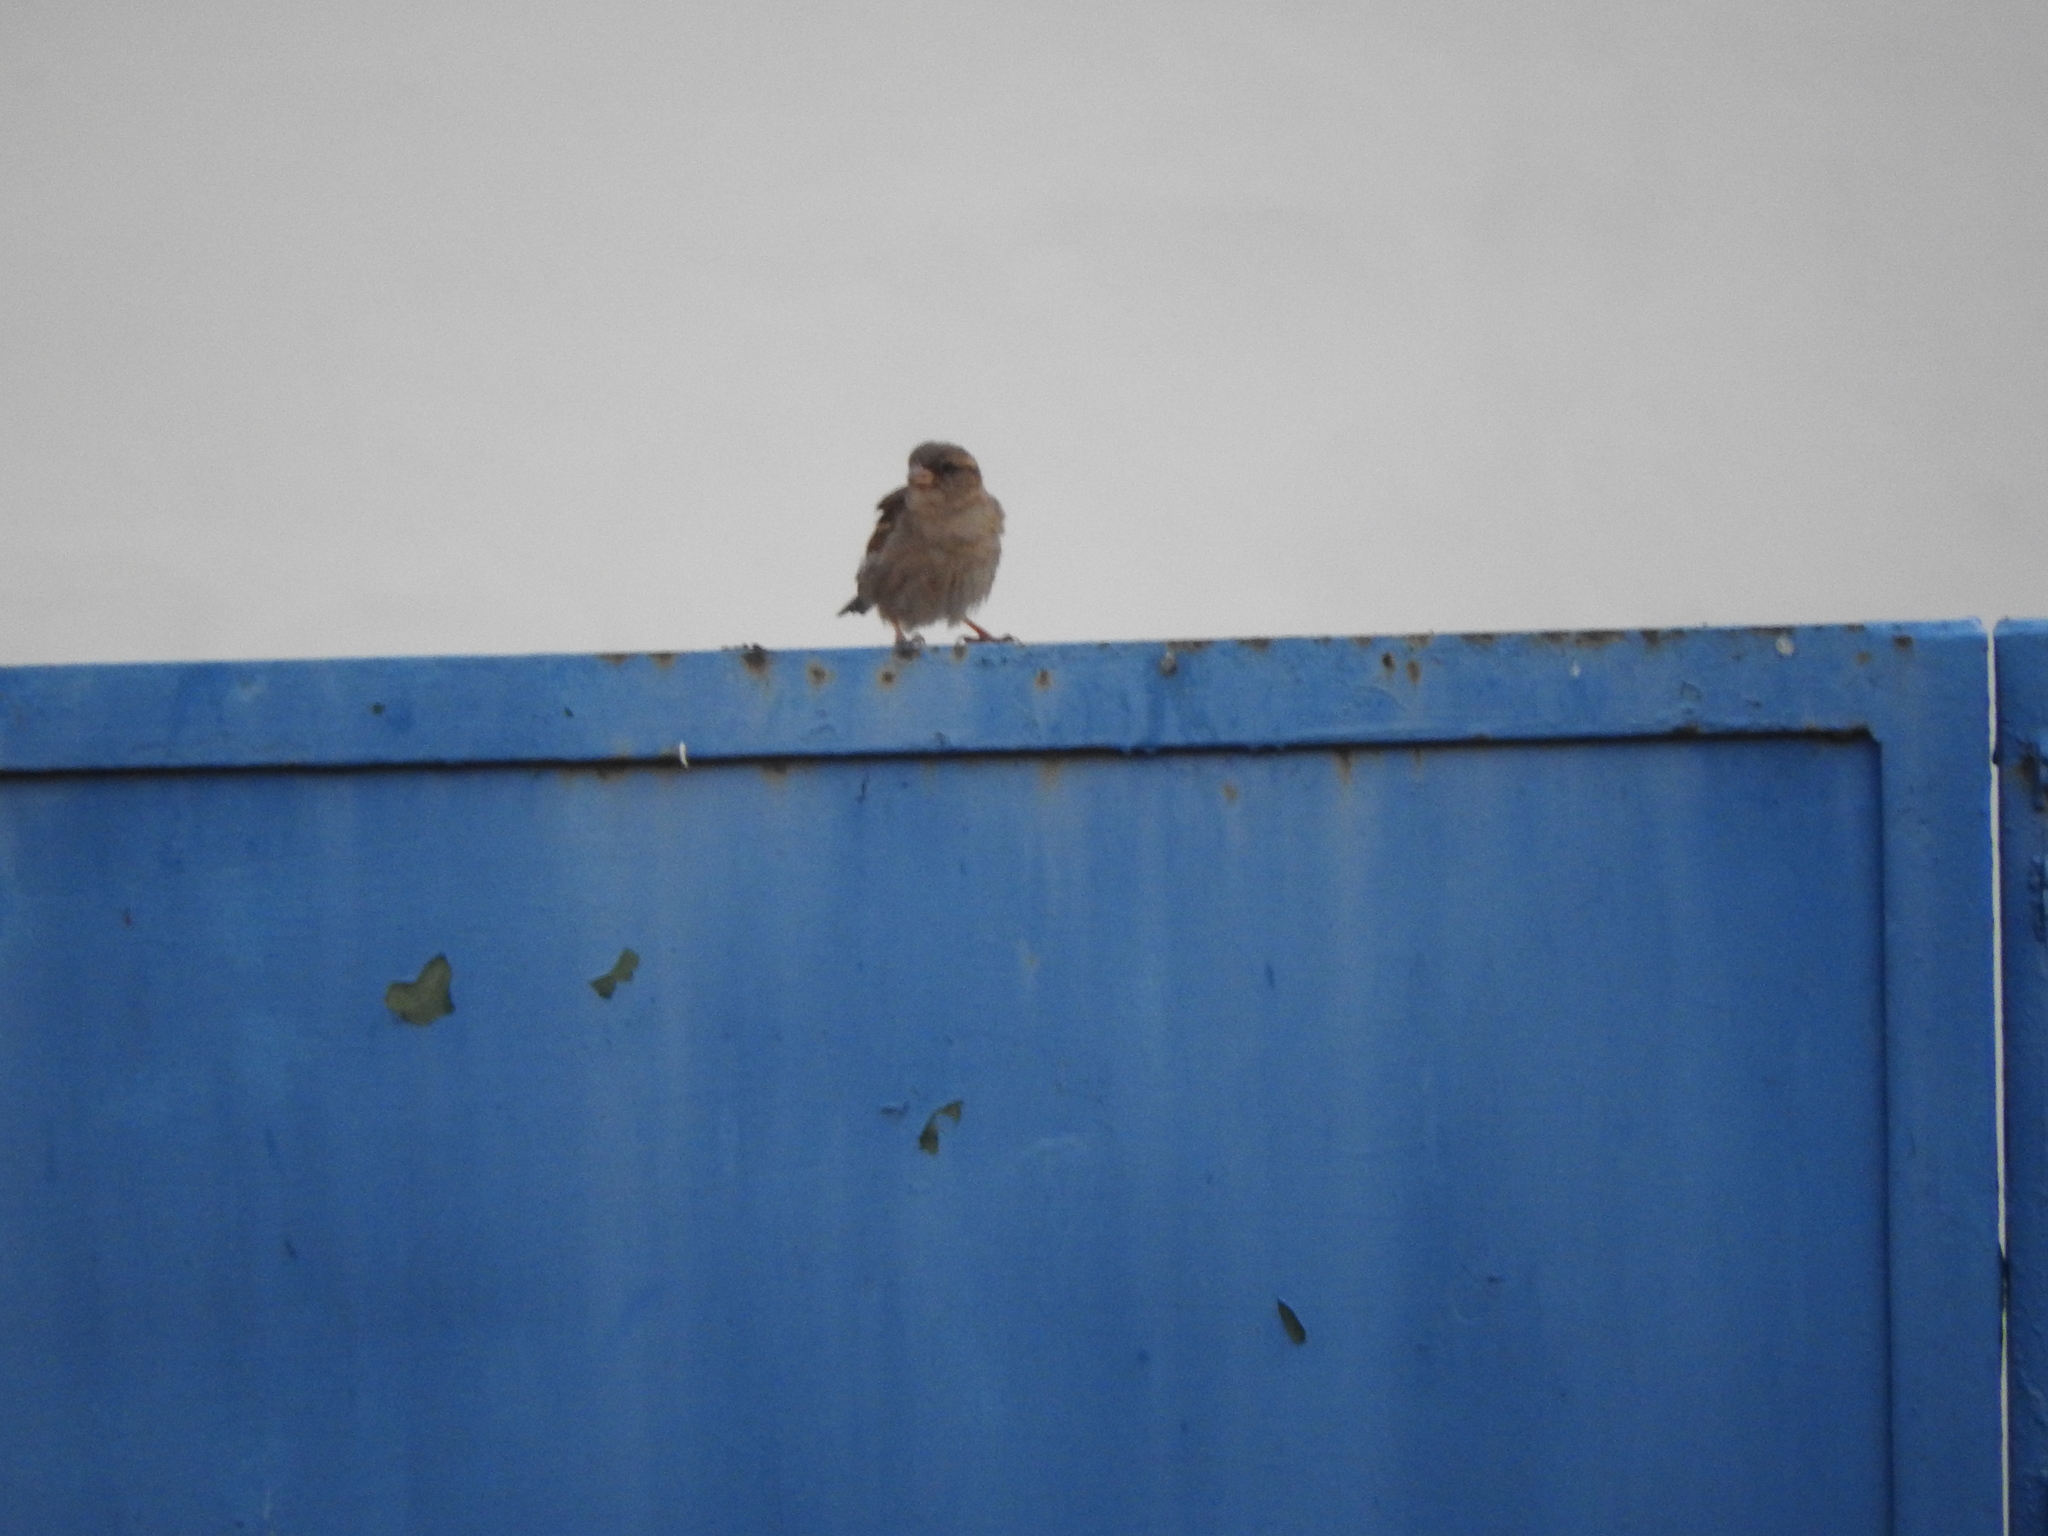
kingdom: Animalia
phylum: Chordata
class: Aves
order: Passeriformes
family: Passeridae
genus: Passer
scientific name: Passer domesticus
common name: House sparrow
